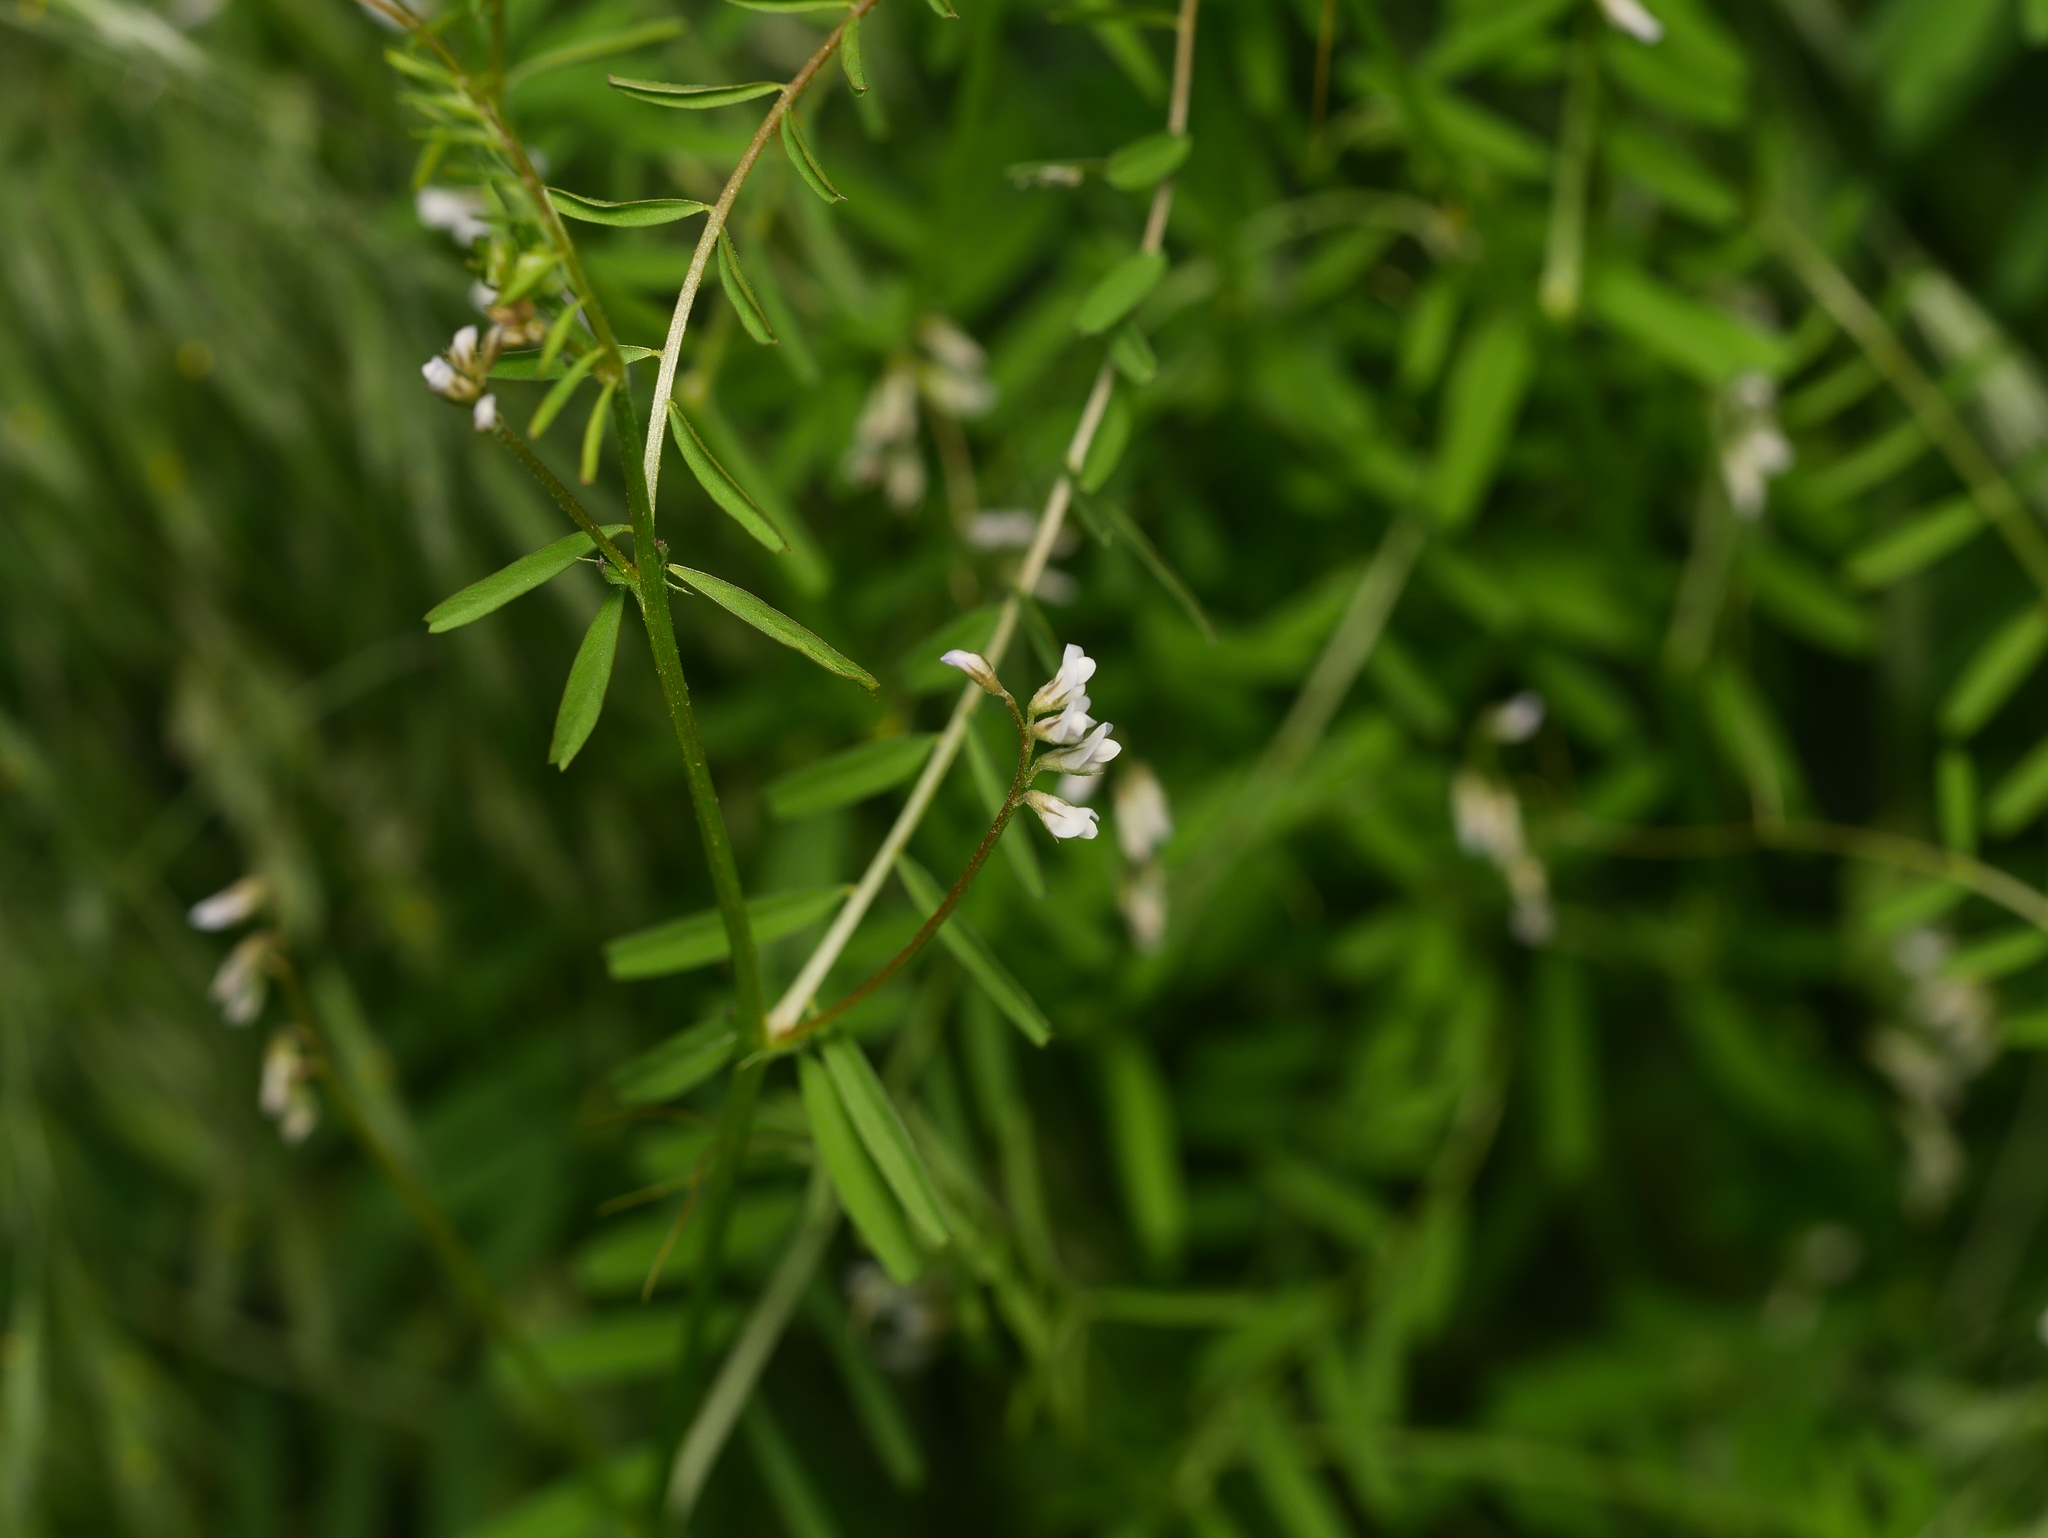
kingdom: Plantae
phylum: Tracheophyta
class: Magnoliopsida
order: Fabales
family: Fabaceae
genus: Vicia
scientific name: Vicia hirsuta
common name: Tiny vetch
